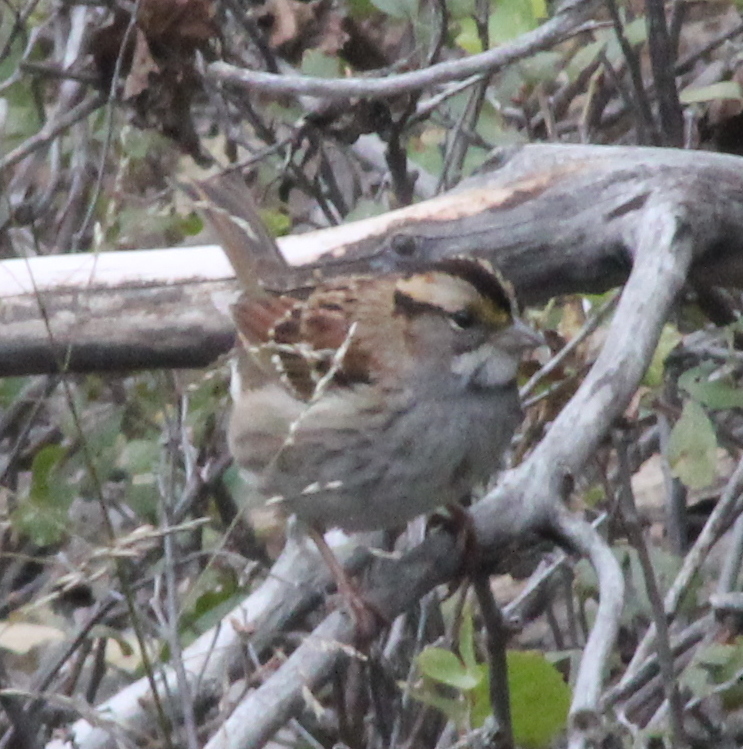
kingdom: Animalia
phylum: Chordata
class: Aves
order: Passeriformes
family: Passerellidae
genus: Zonotrichia
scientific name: Zonotrichia albicollis
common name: White-throated sparrow
